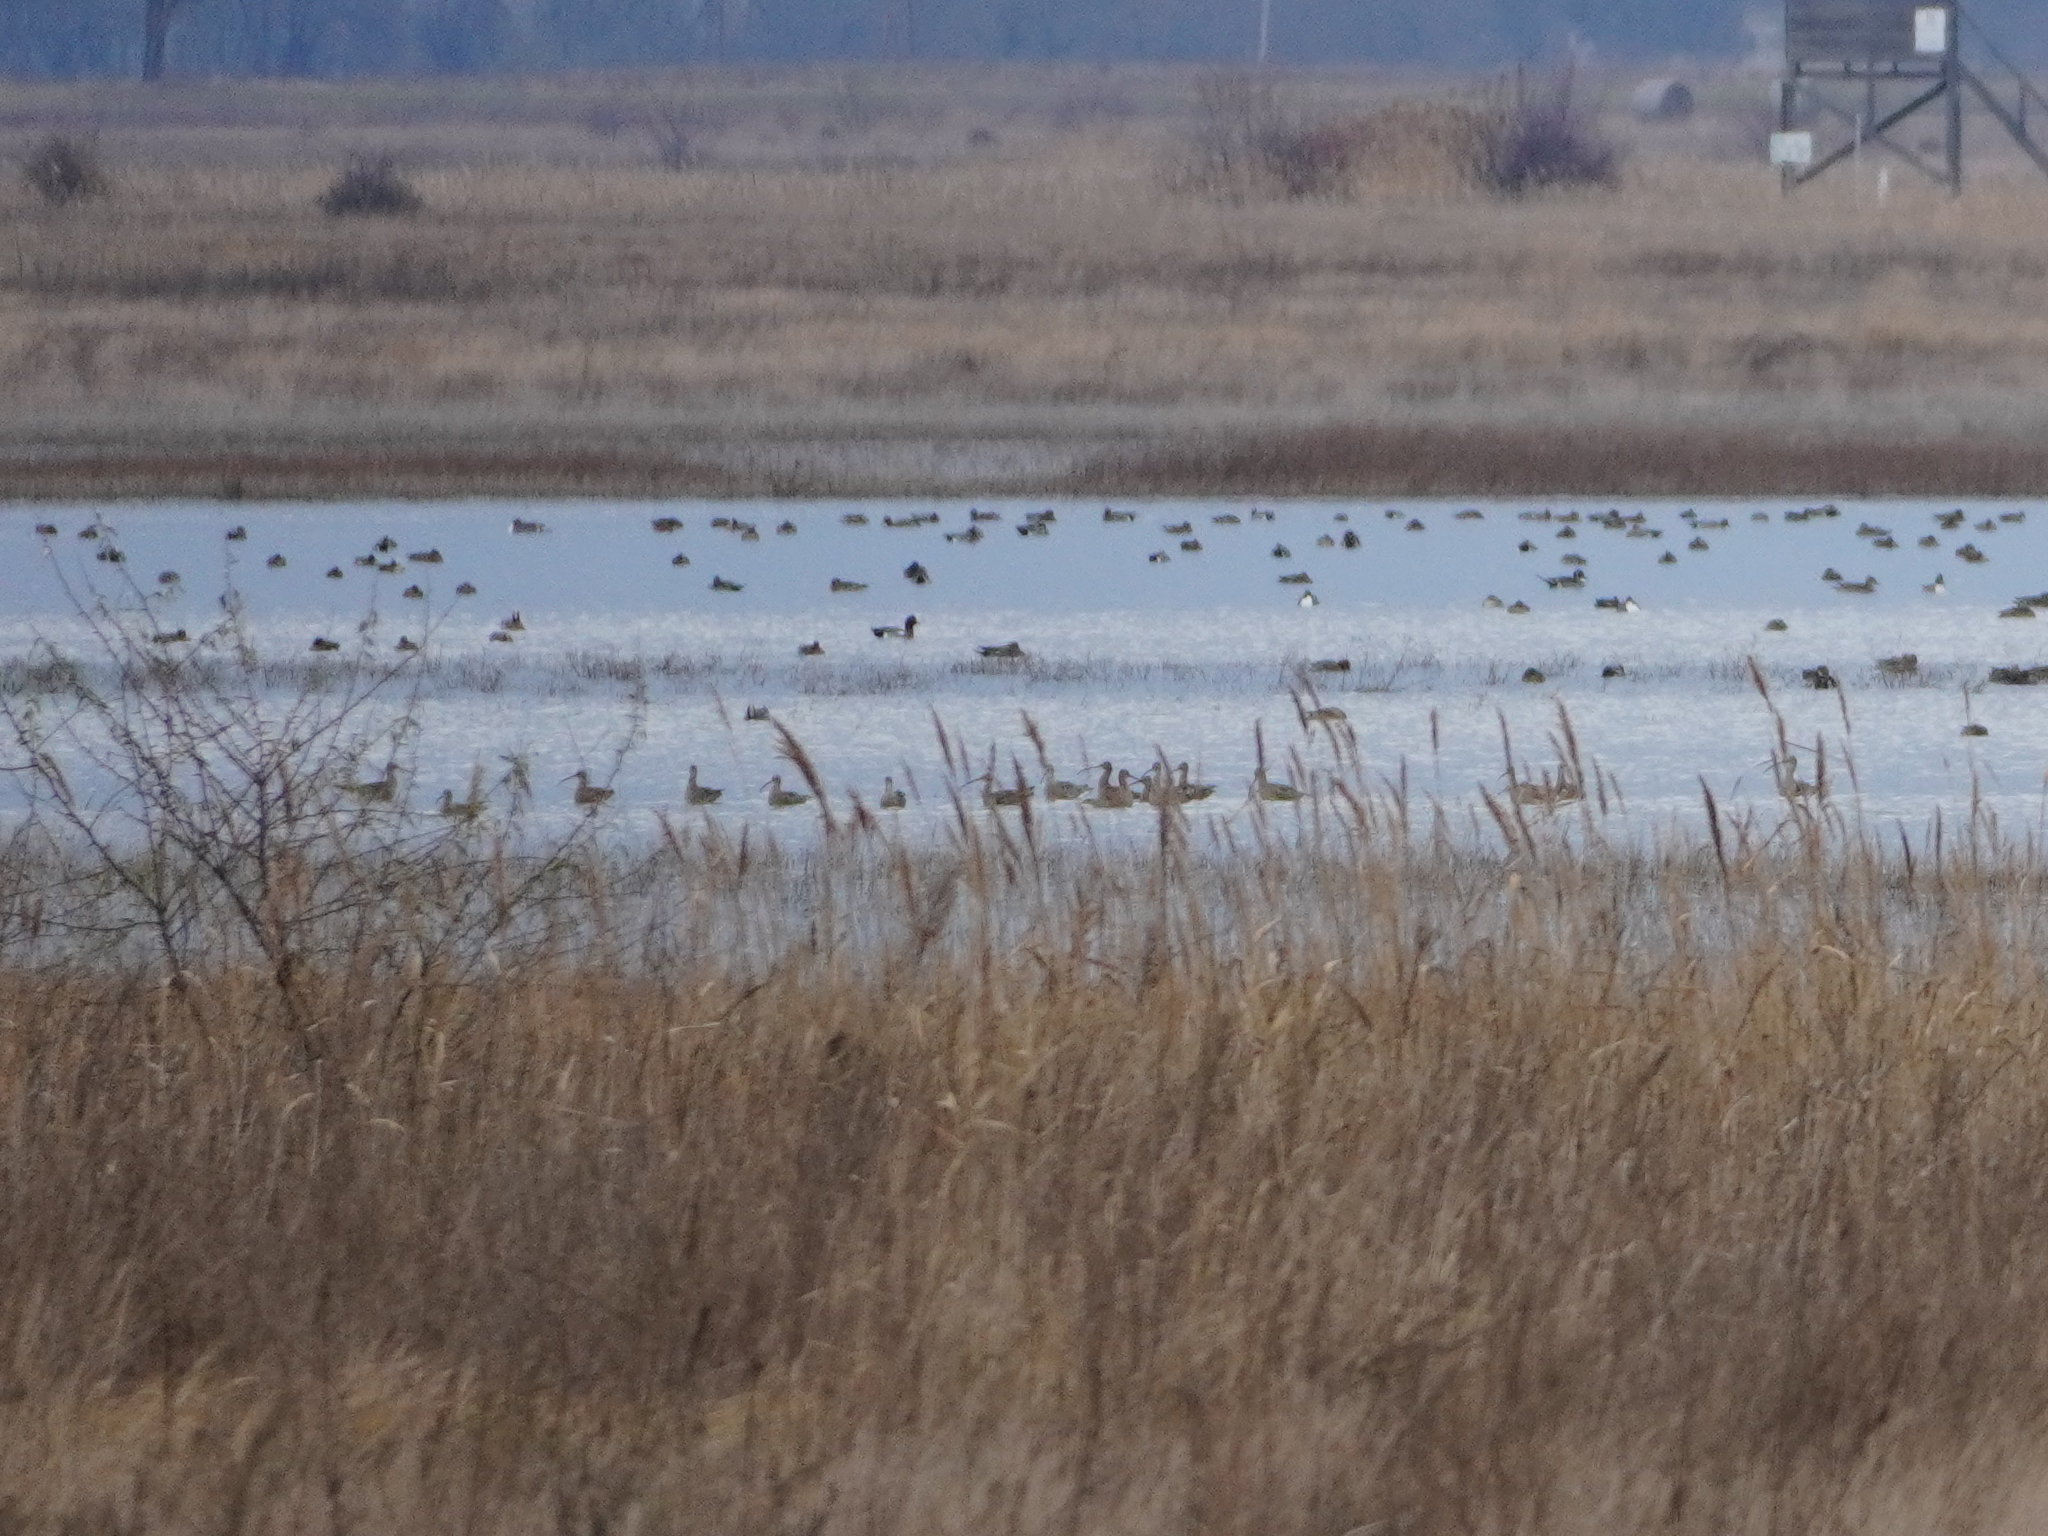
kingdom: Animalia
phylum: Chordata
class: Aves
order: Charadriiformes
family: Scolopacidae
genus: Numenius
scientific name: Numenius arquata
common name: Eurasian curlew
